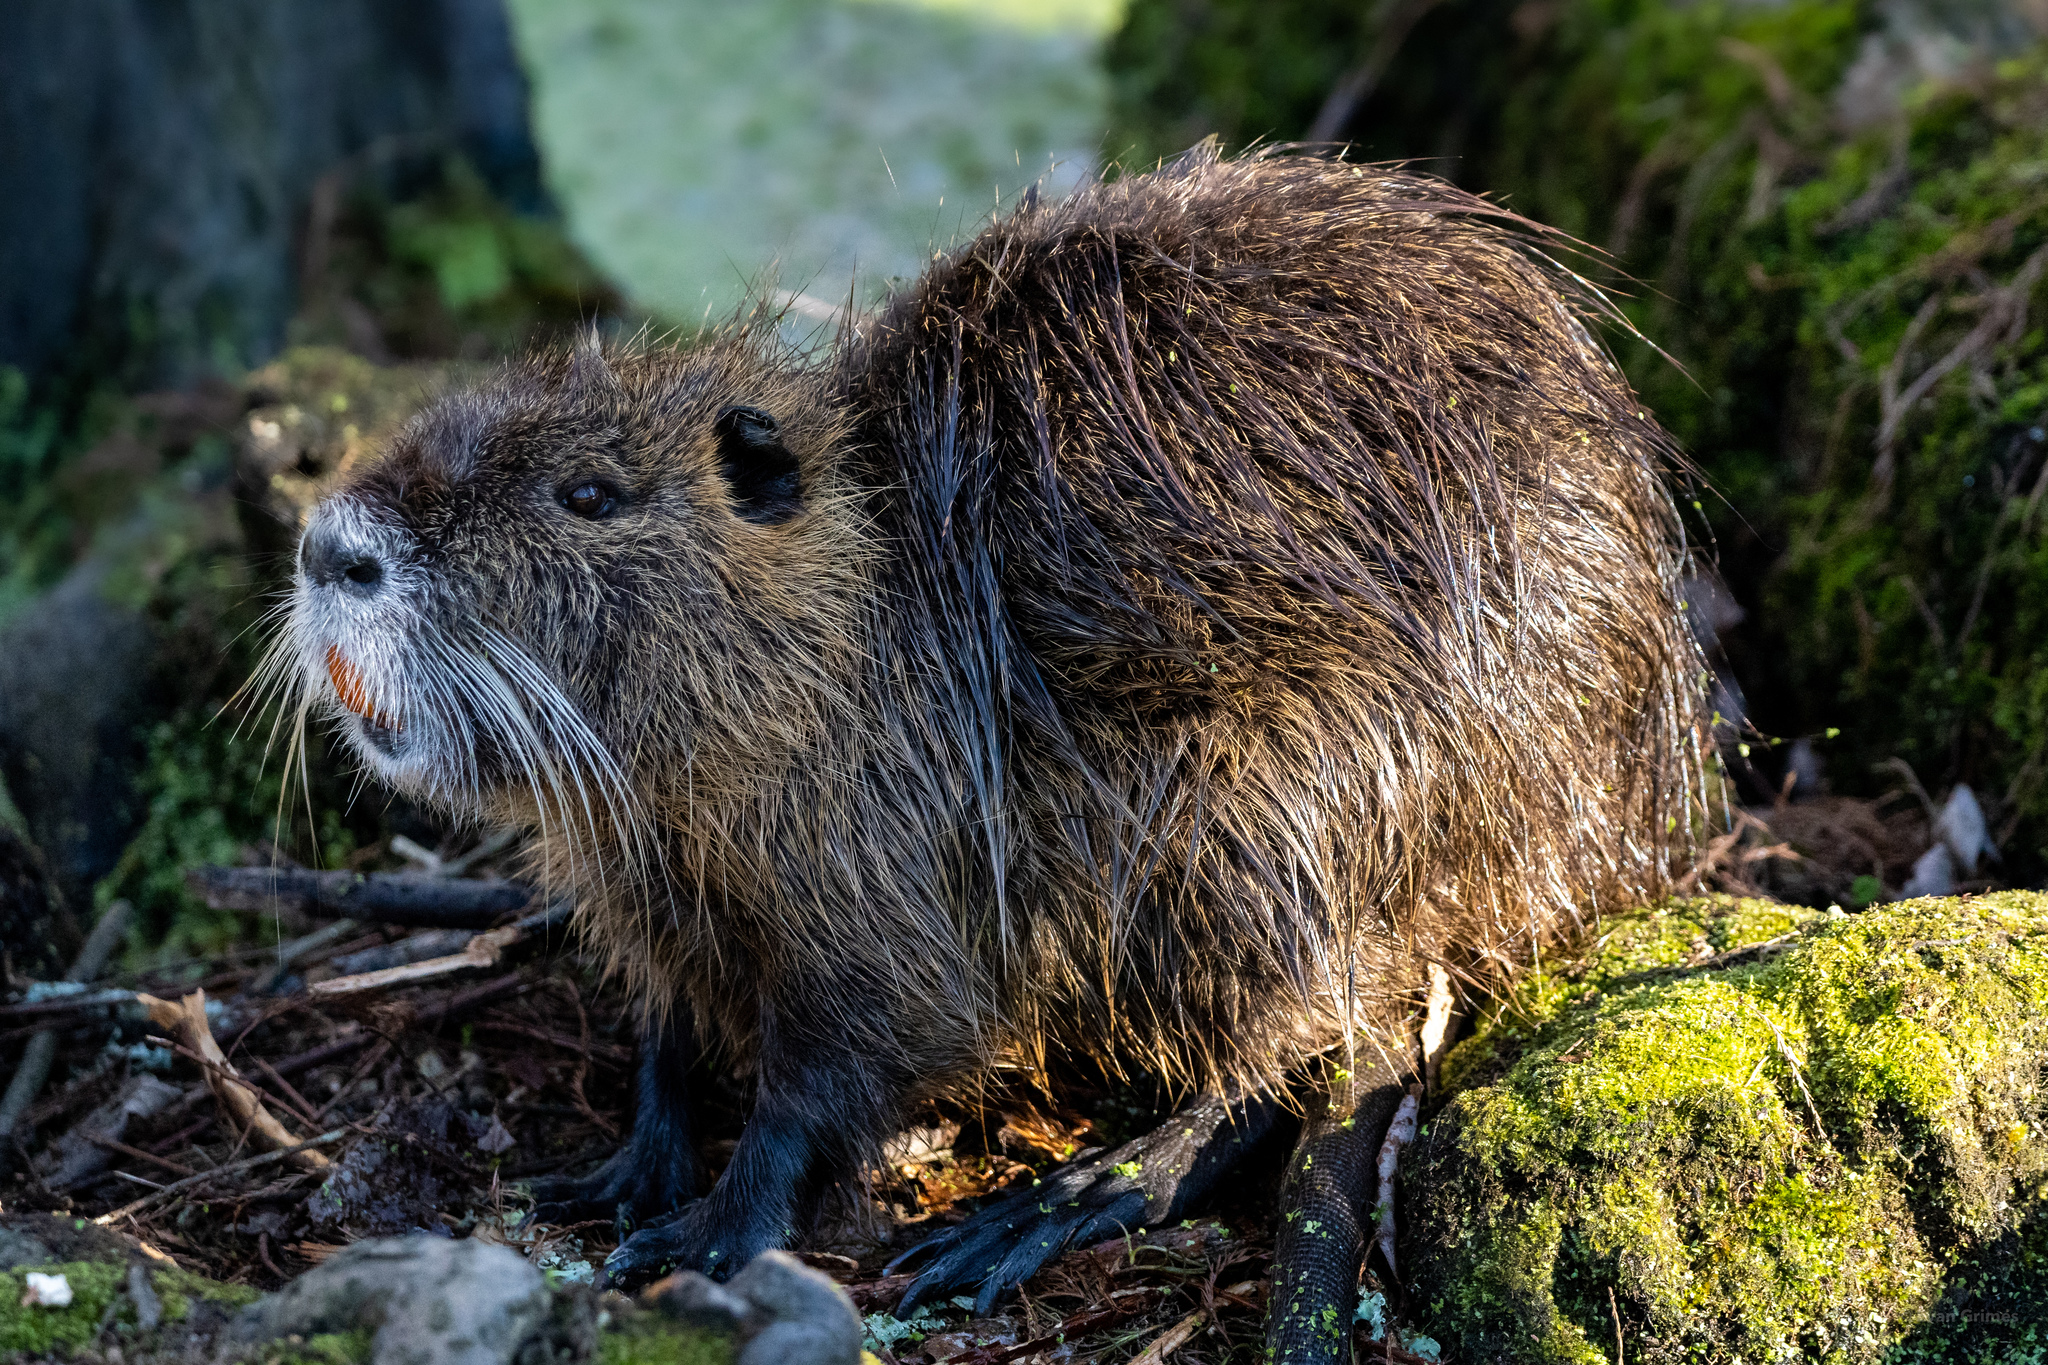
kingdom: Animalia
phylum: Chordata
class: Mammalia
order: Rodentia
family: Myocastoridae
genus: Myocastor
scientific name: Myocastor coypus
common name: Coypu
